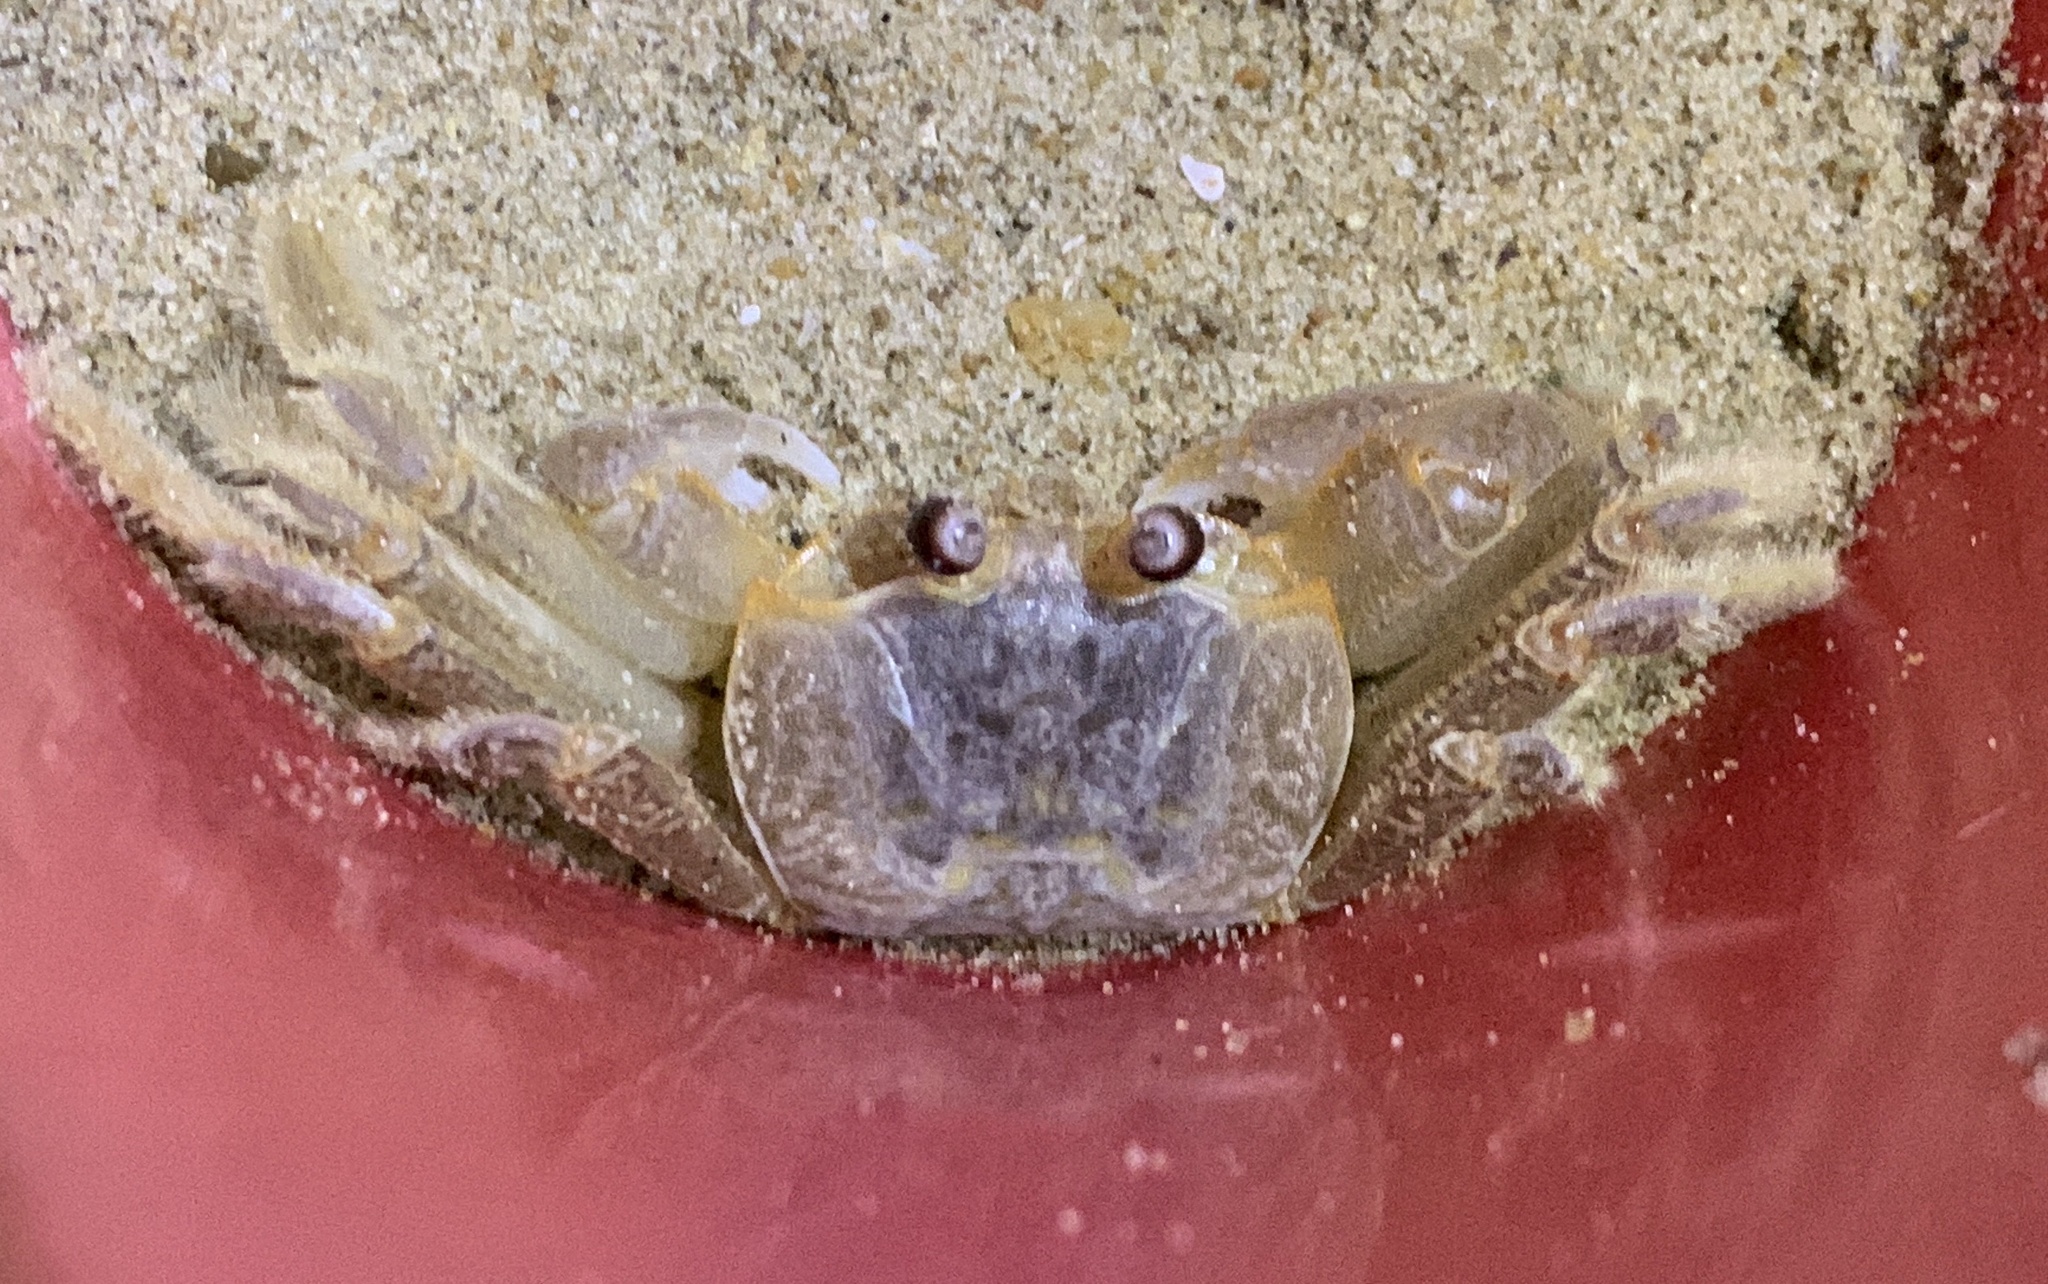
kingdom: Animalia
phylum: Arthropoda
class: Malacostraca
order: Decapoda
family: Ocypodidae
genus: Ocypode
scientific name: Ocypode quadrata
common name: Ghost crab
